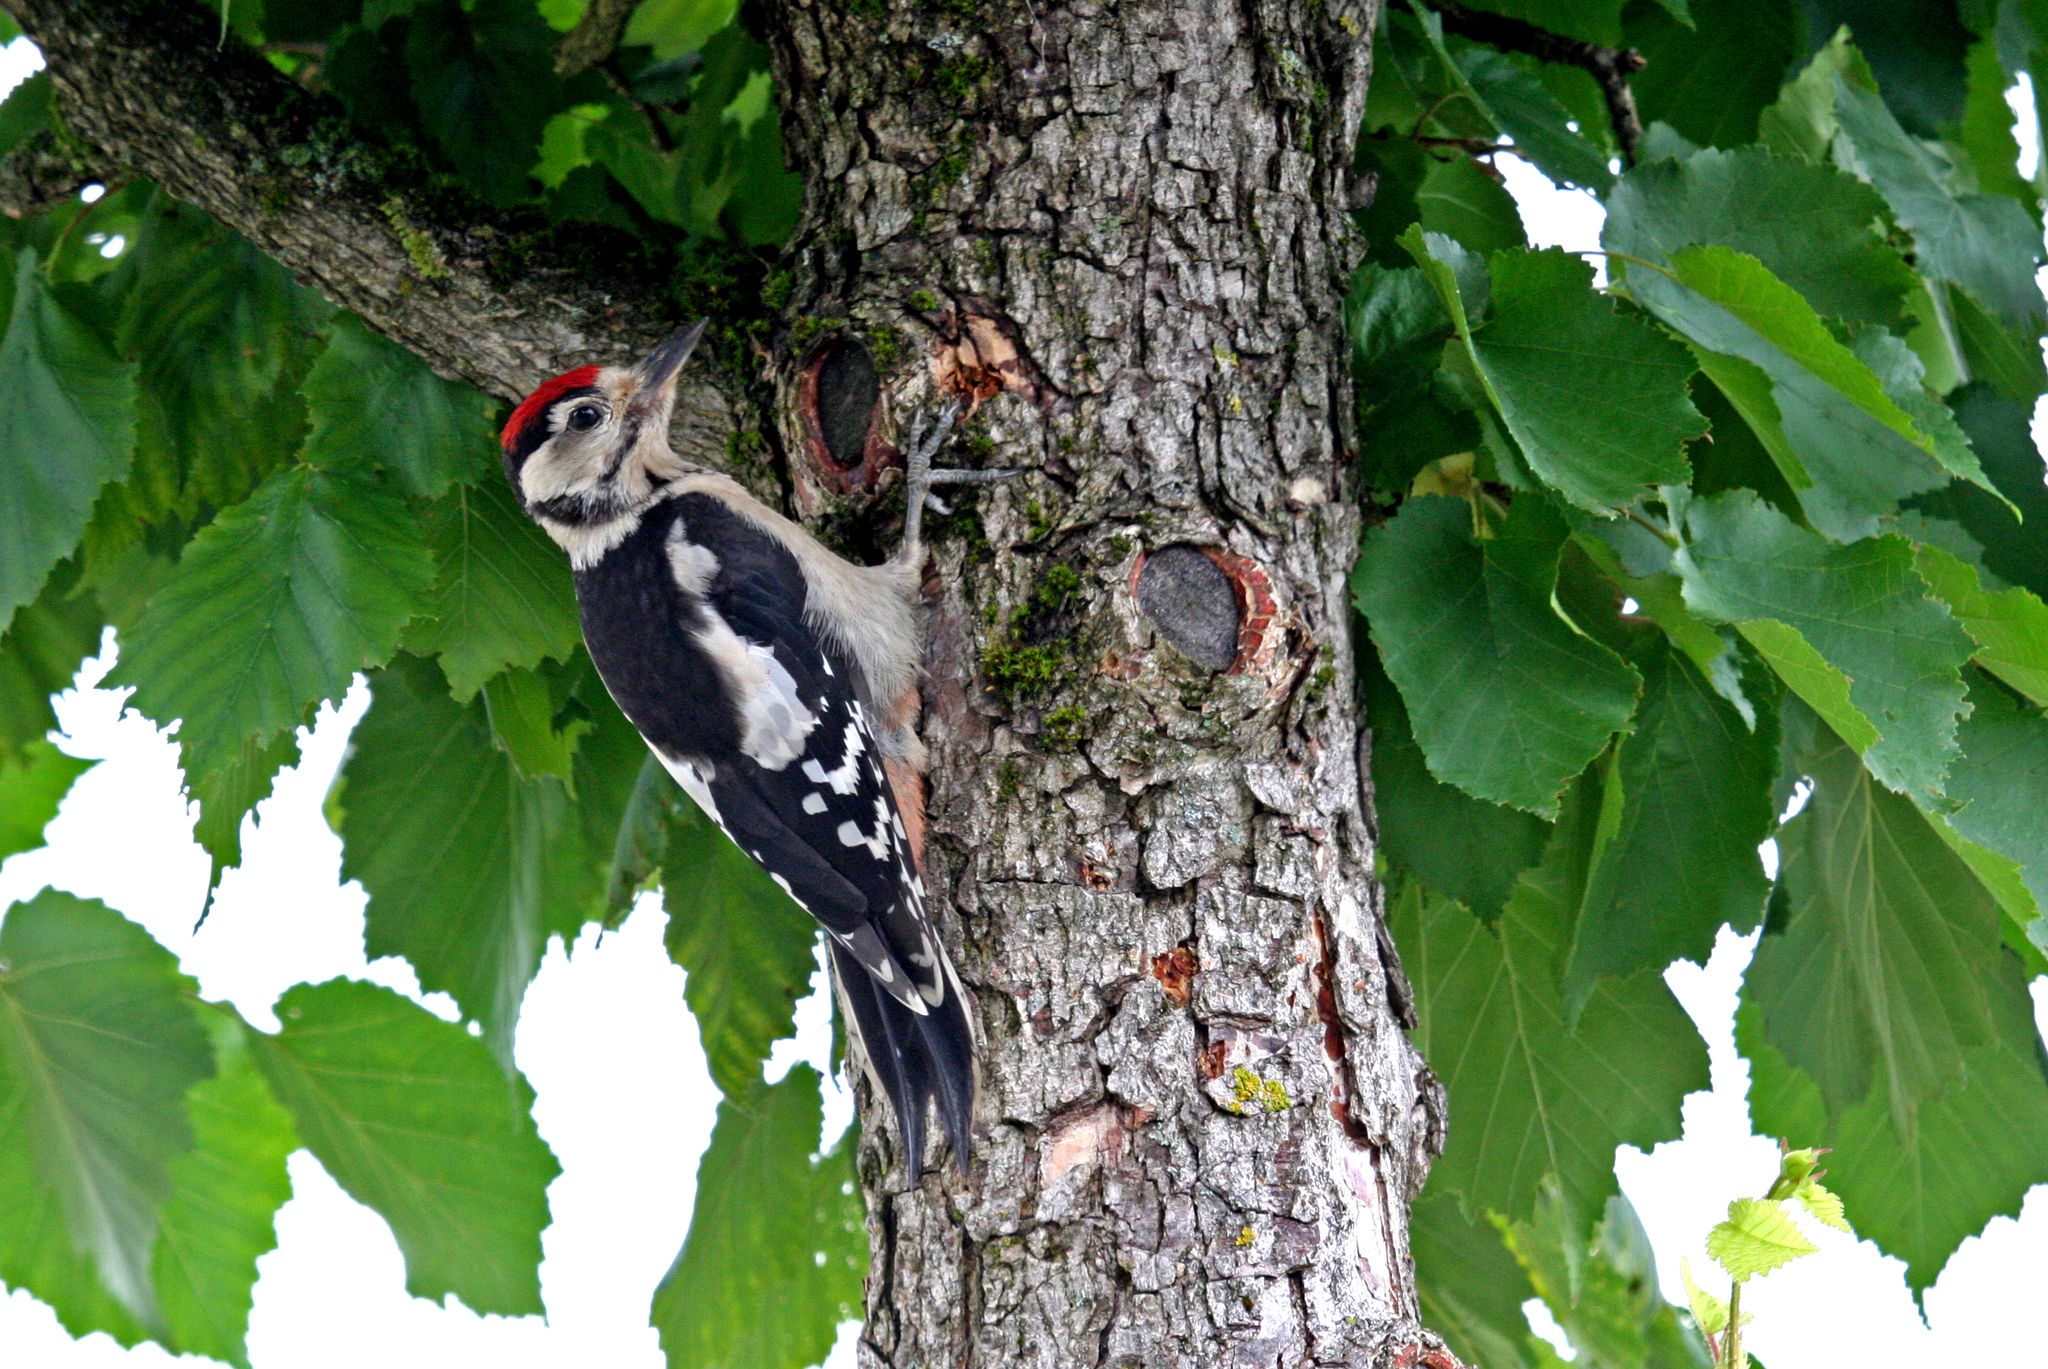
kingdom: Animalia
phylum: Chordata
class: Aves
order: Piciformes
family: Picidae
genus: Dendrocopos
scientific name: Dendrocopos major
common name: Great spotted woodpecker
